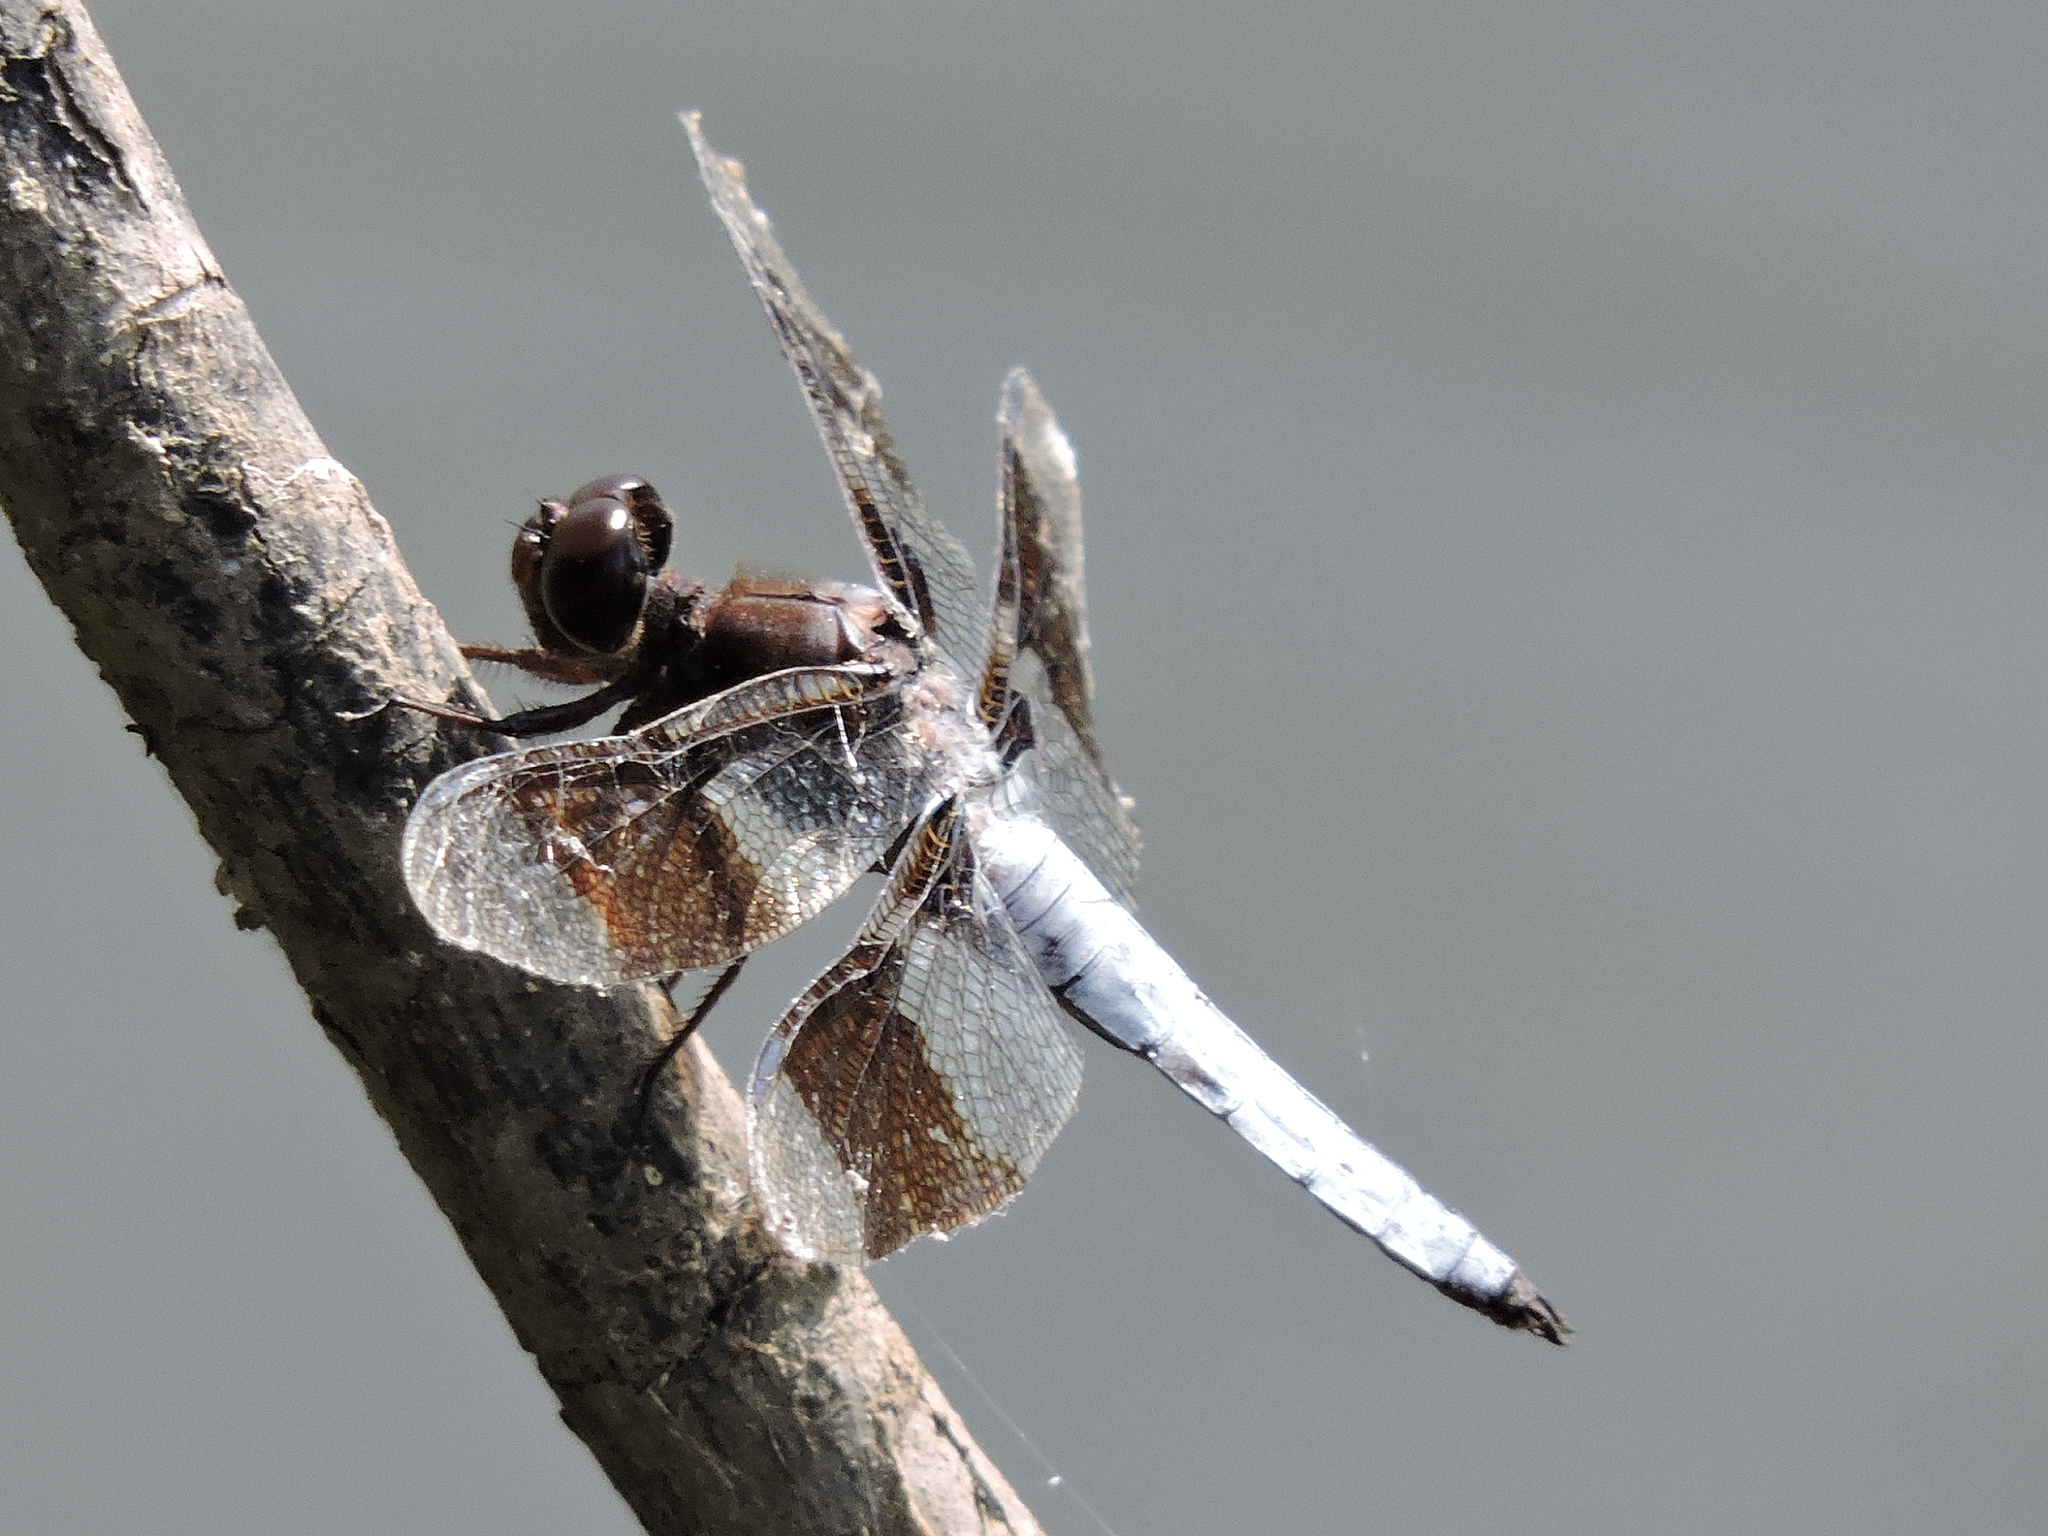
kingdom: Animalia
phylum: Arthropoda
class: Insecta
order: Odonata
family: Libellulidae
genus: Plathemis
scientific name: Plathemis lydia
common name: Common whitetail
